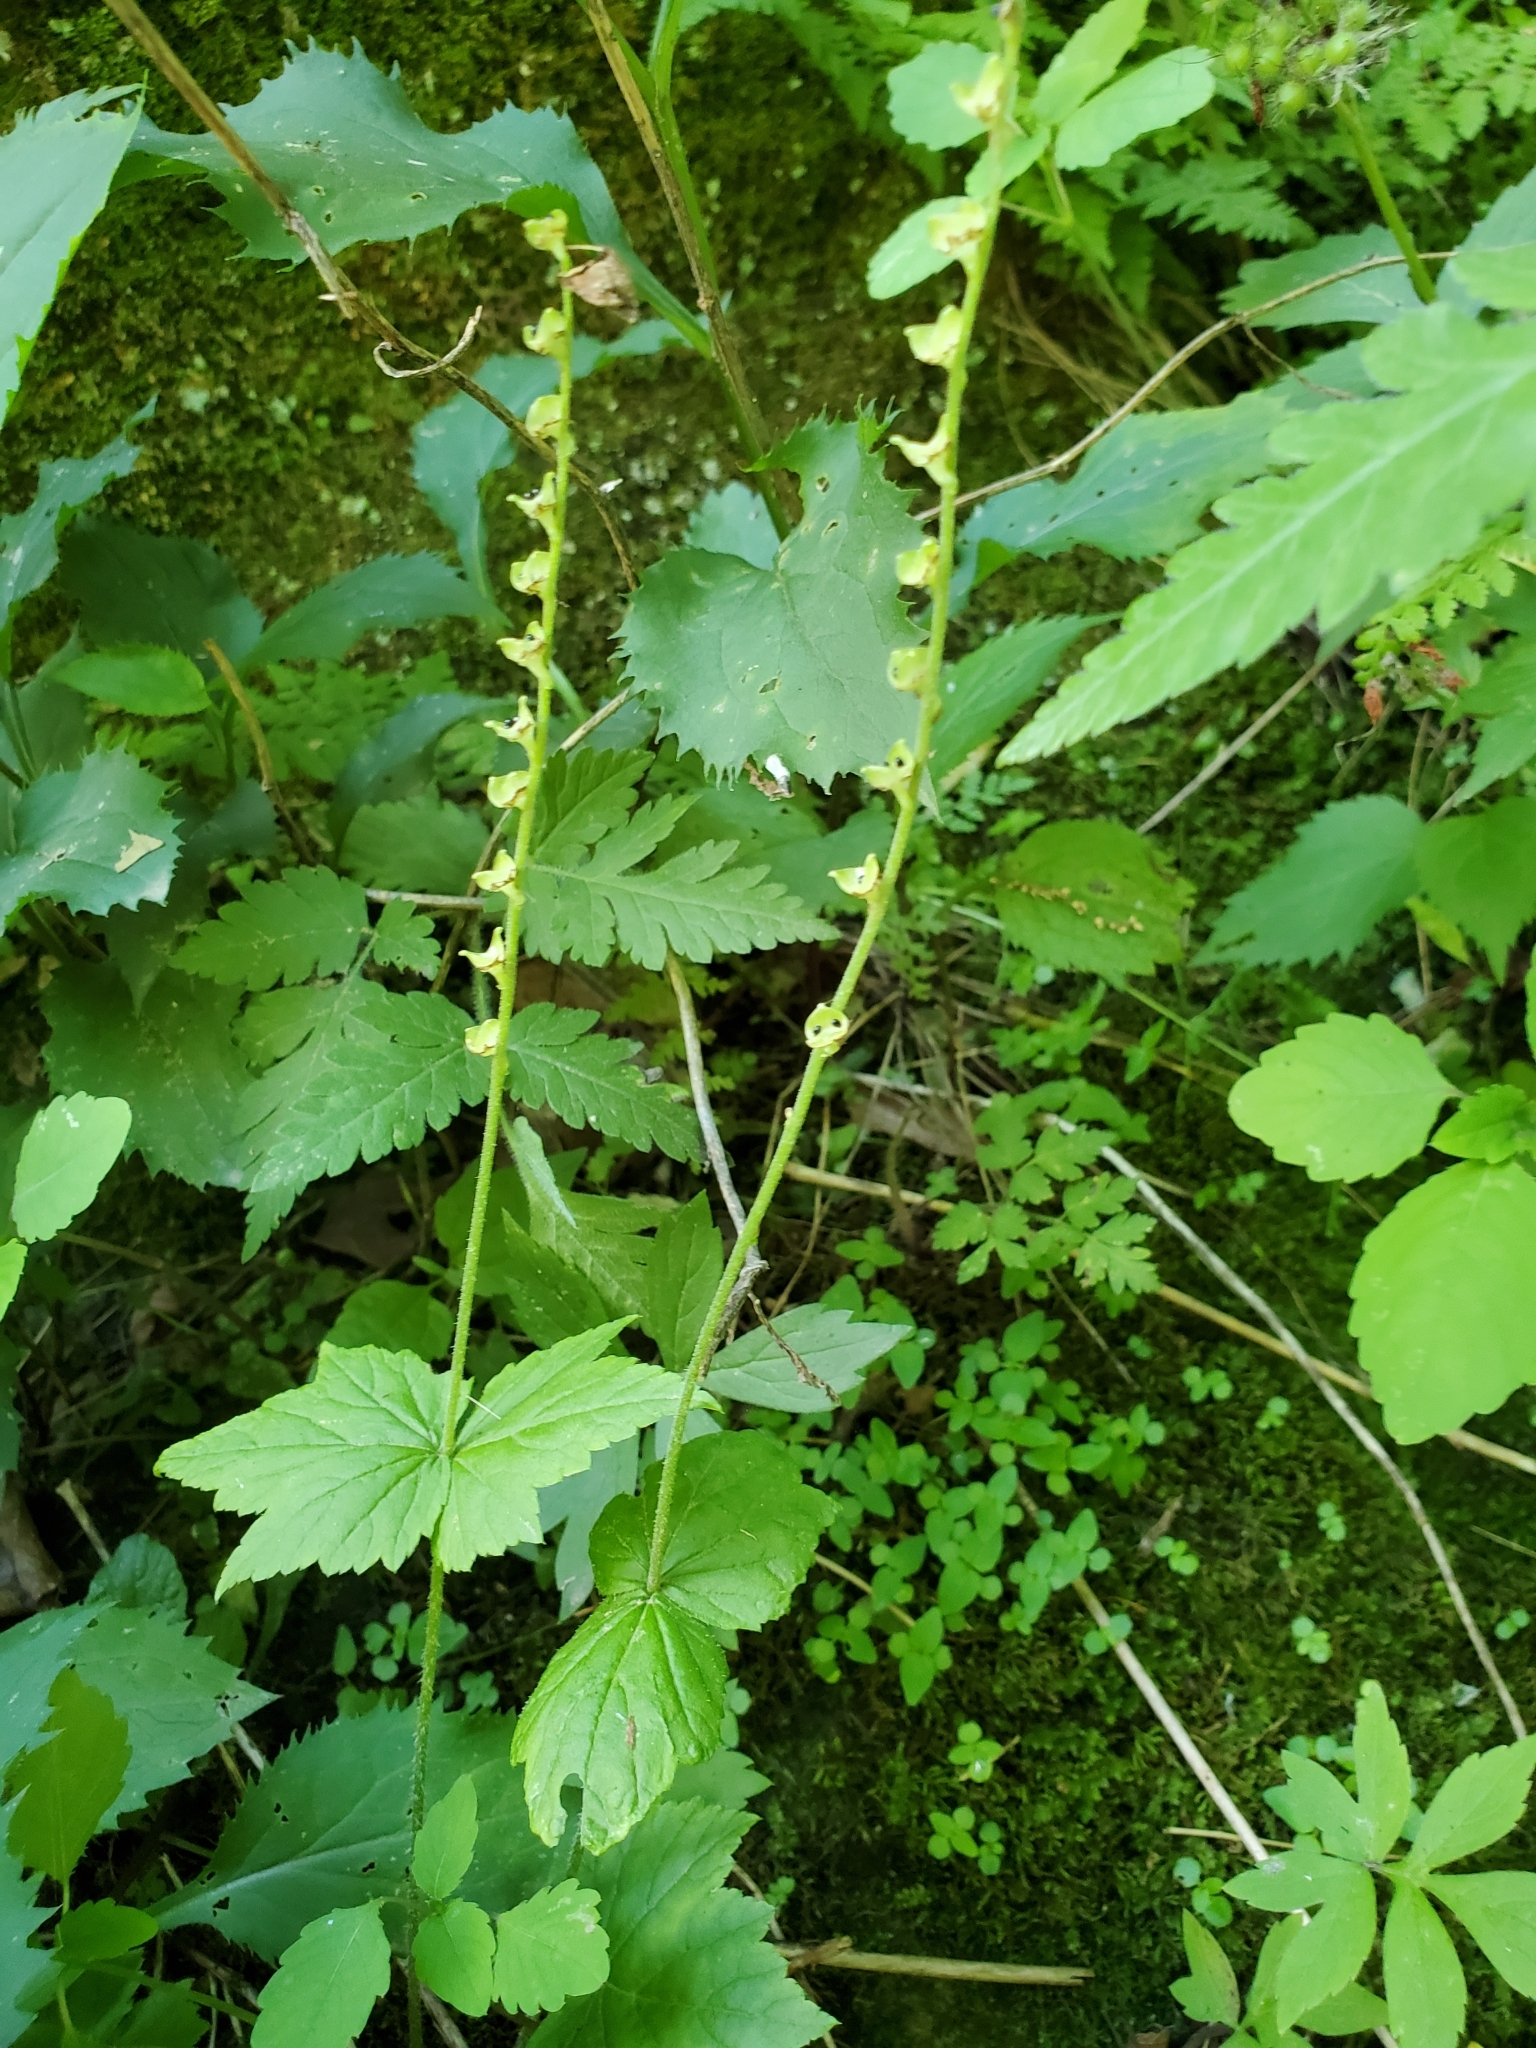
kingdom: Plantae
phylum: Tracheophyta
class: Magnoliopsida
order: Saxifragales
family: Saxifragaceae
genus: Mitella
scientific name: Mitella diphylla
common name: Coolwort
